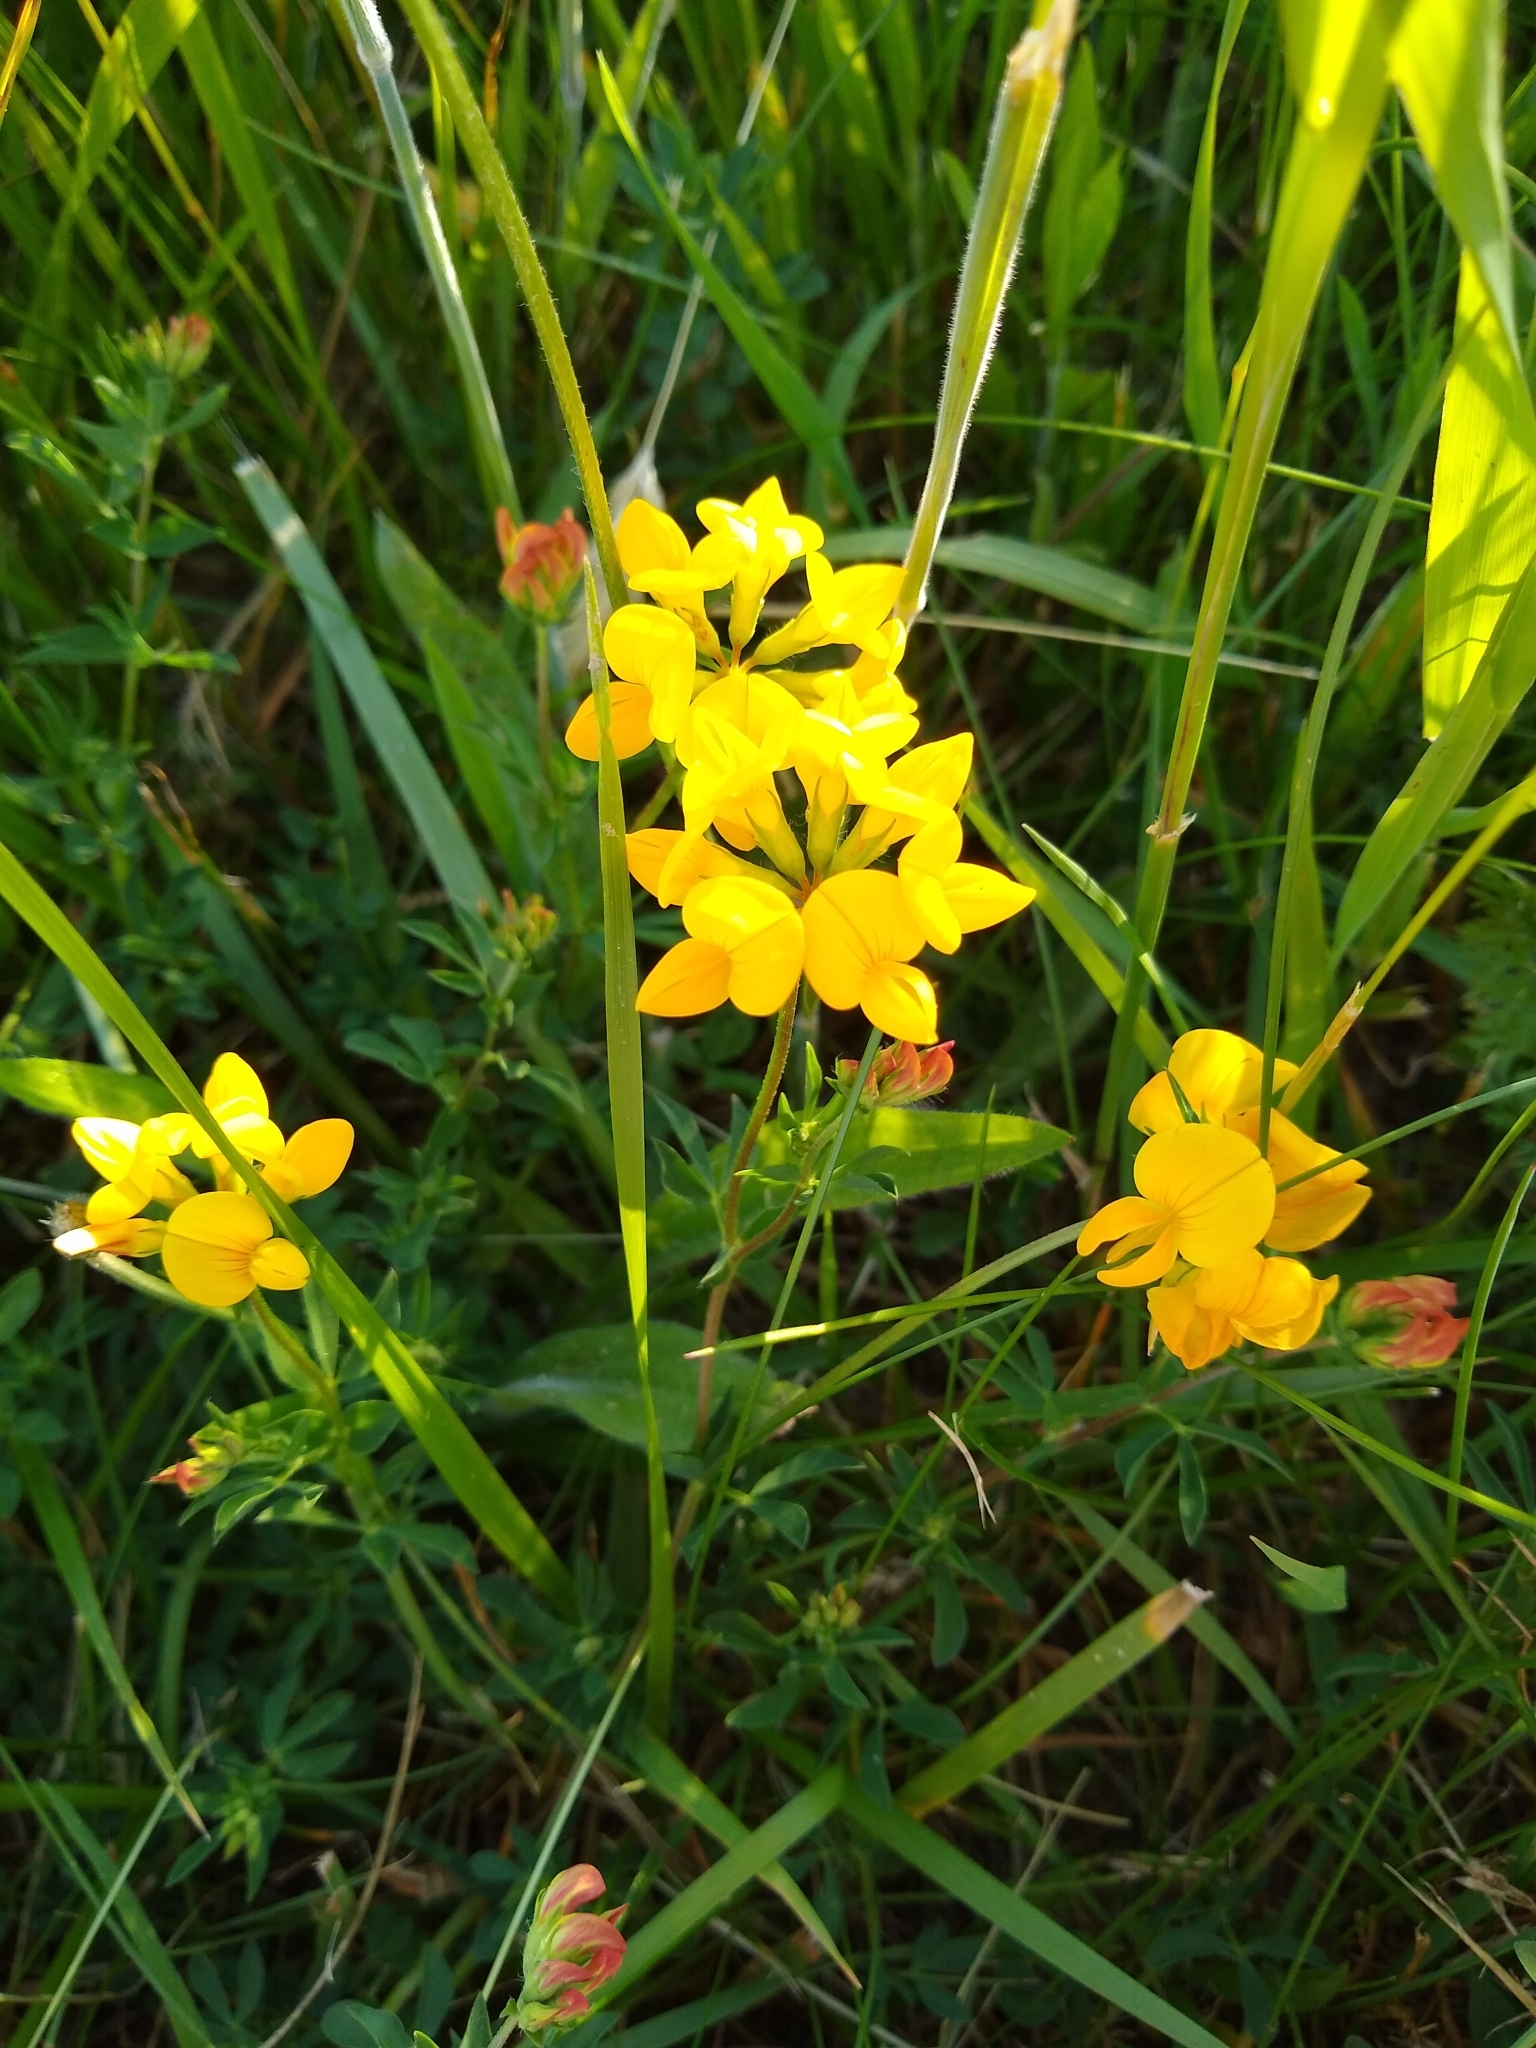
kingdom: Plantae
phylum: Tracheophyta
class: Magnoliopsida
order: Fabales
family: Fabaceae
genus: Lotus
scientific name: Lotus corniculatus
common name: Common bird's-foot-trefoil
